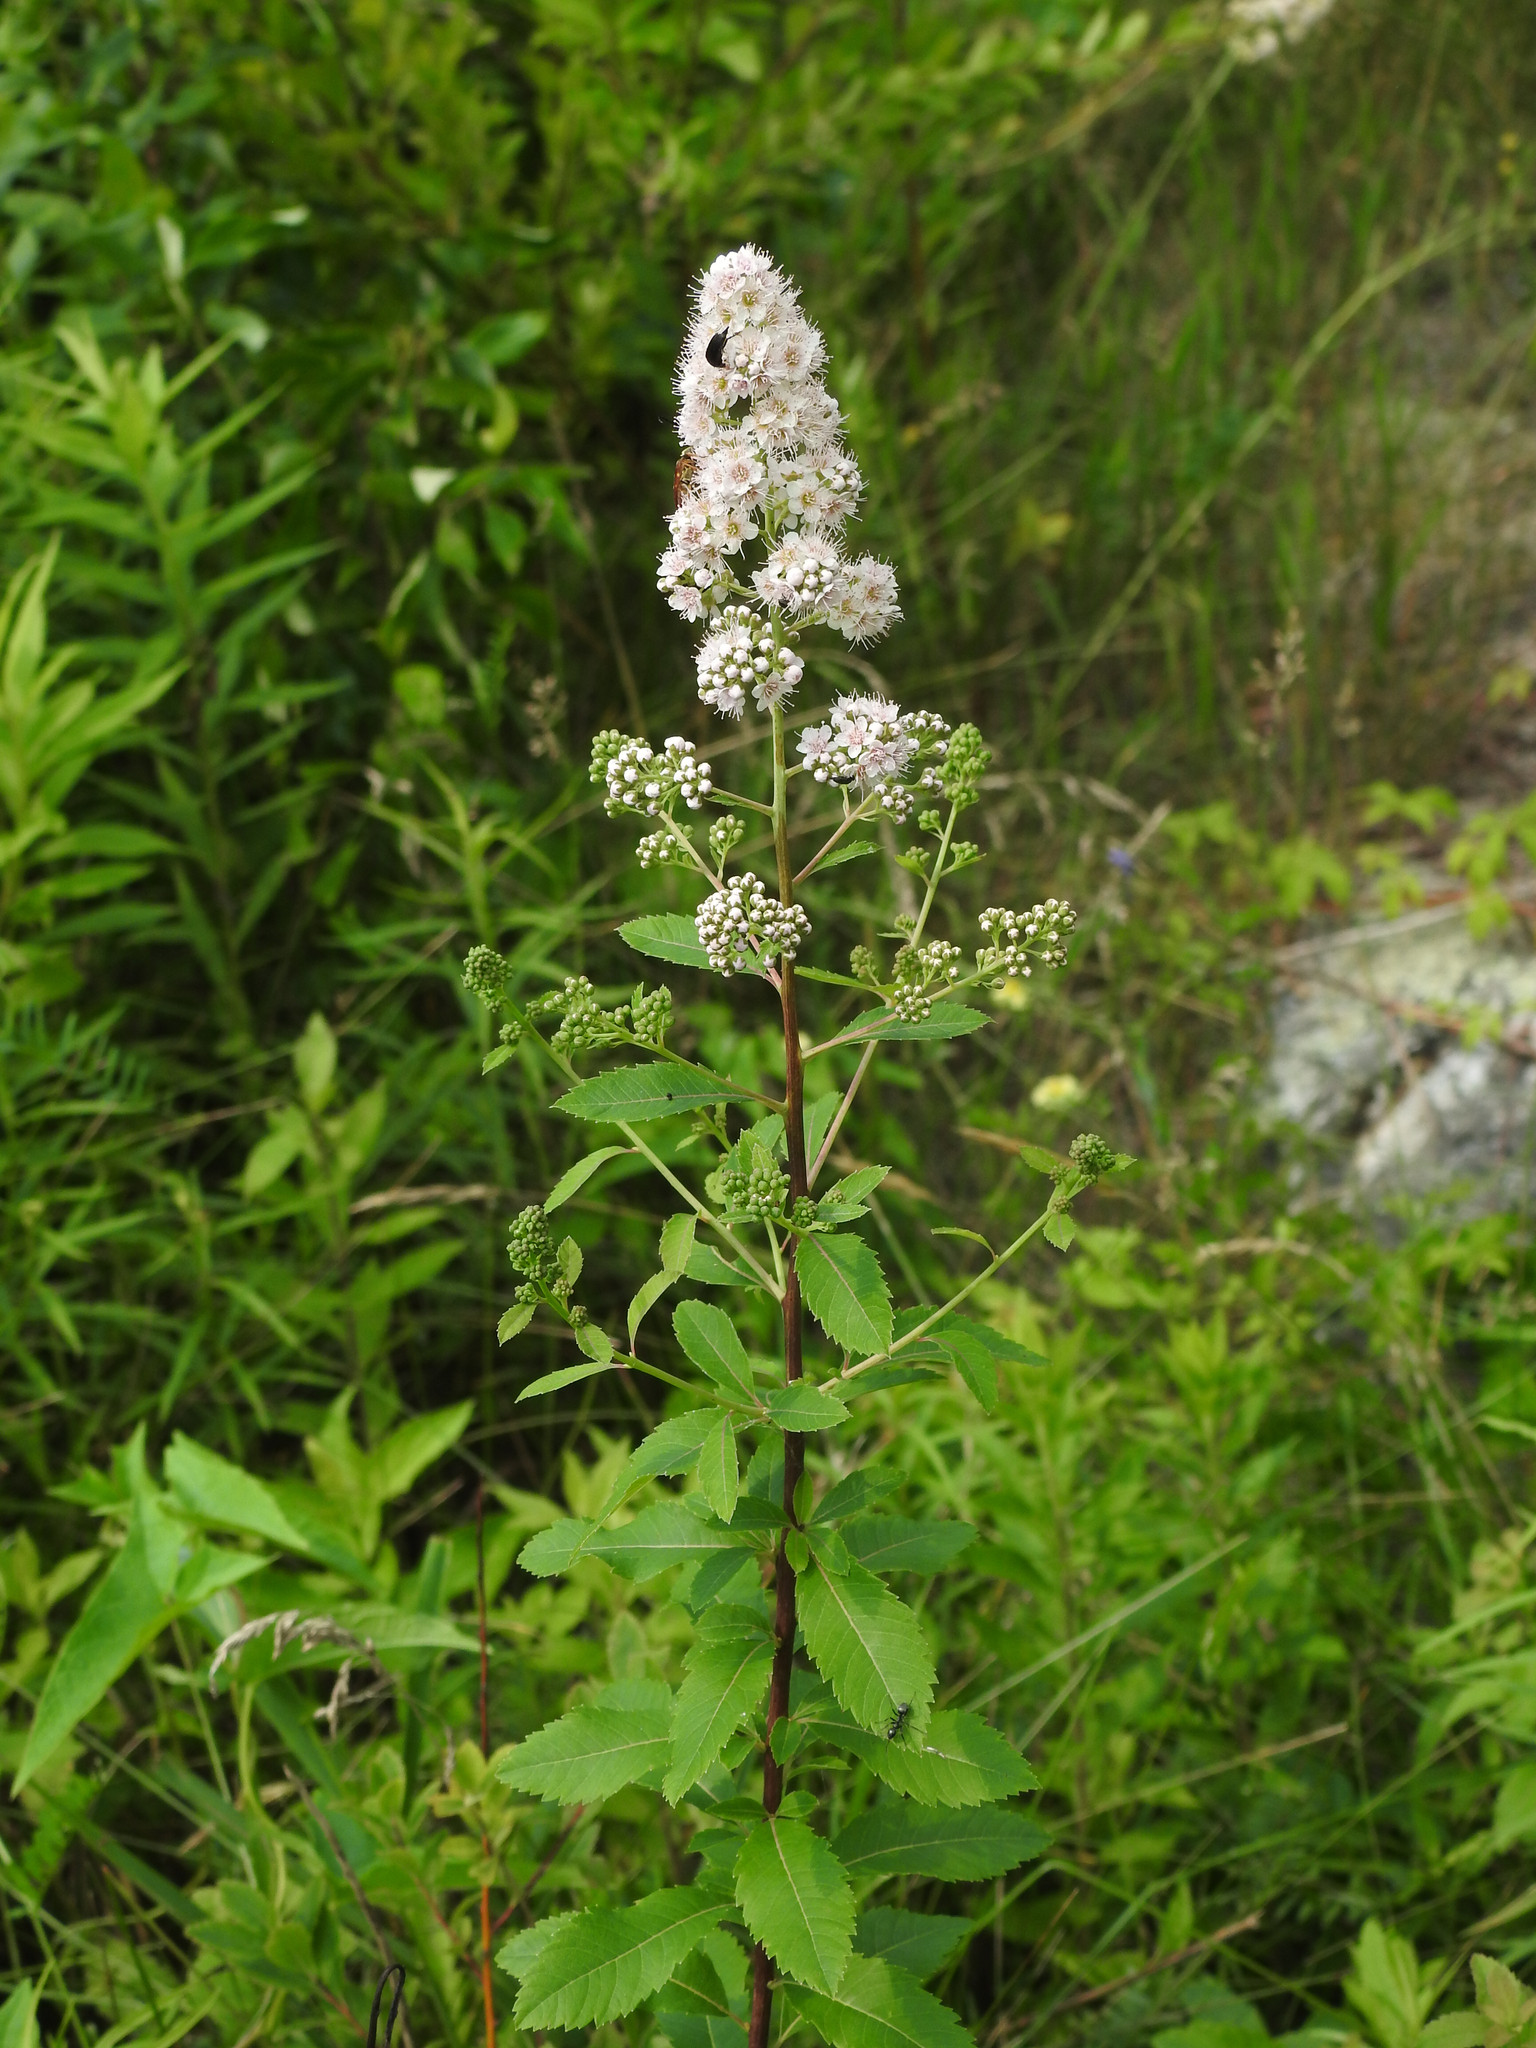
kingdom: Plantae
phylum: Tracheophyta
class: Magnoliopsida
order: Rosales
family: Rosaceae
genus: Spiraea
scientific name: Spiraea alba
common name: Pale bridewort
